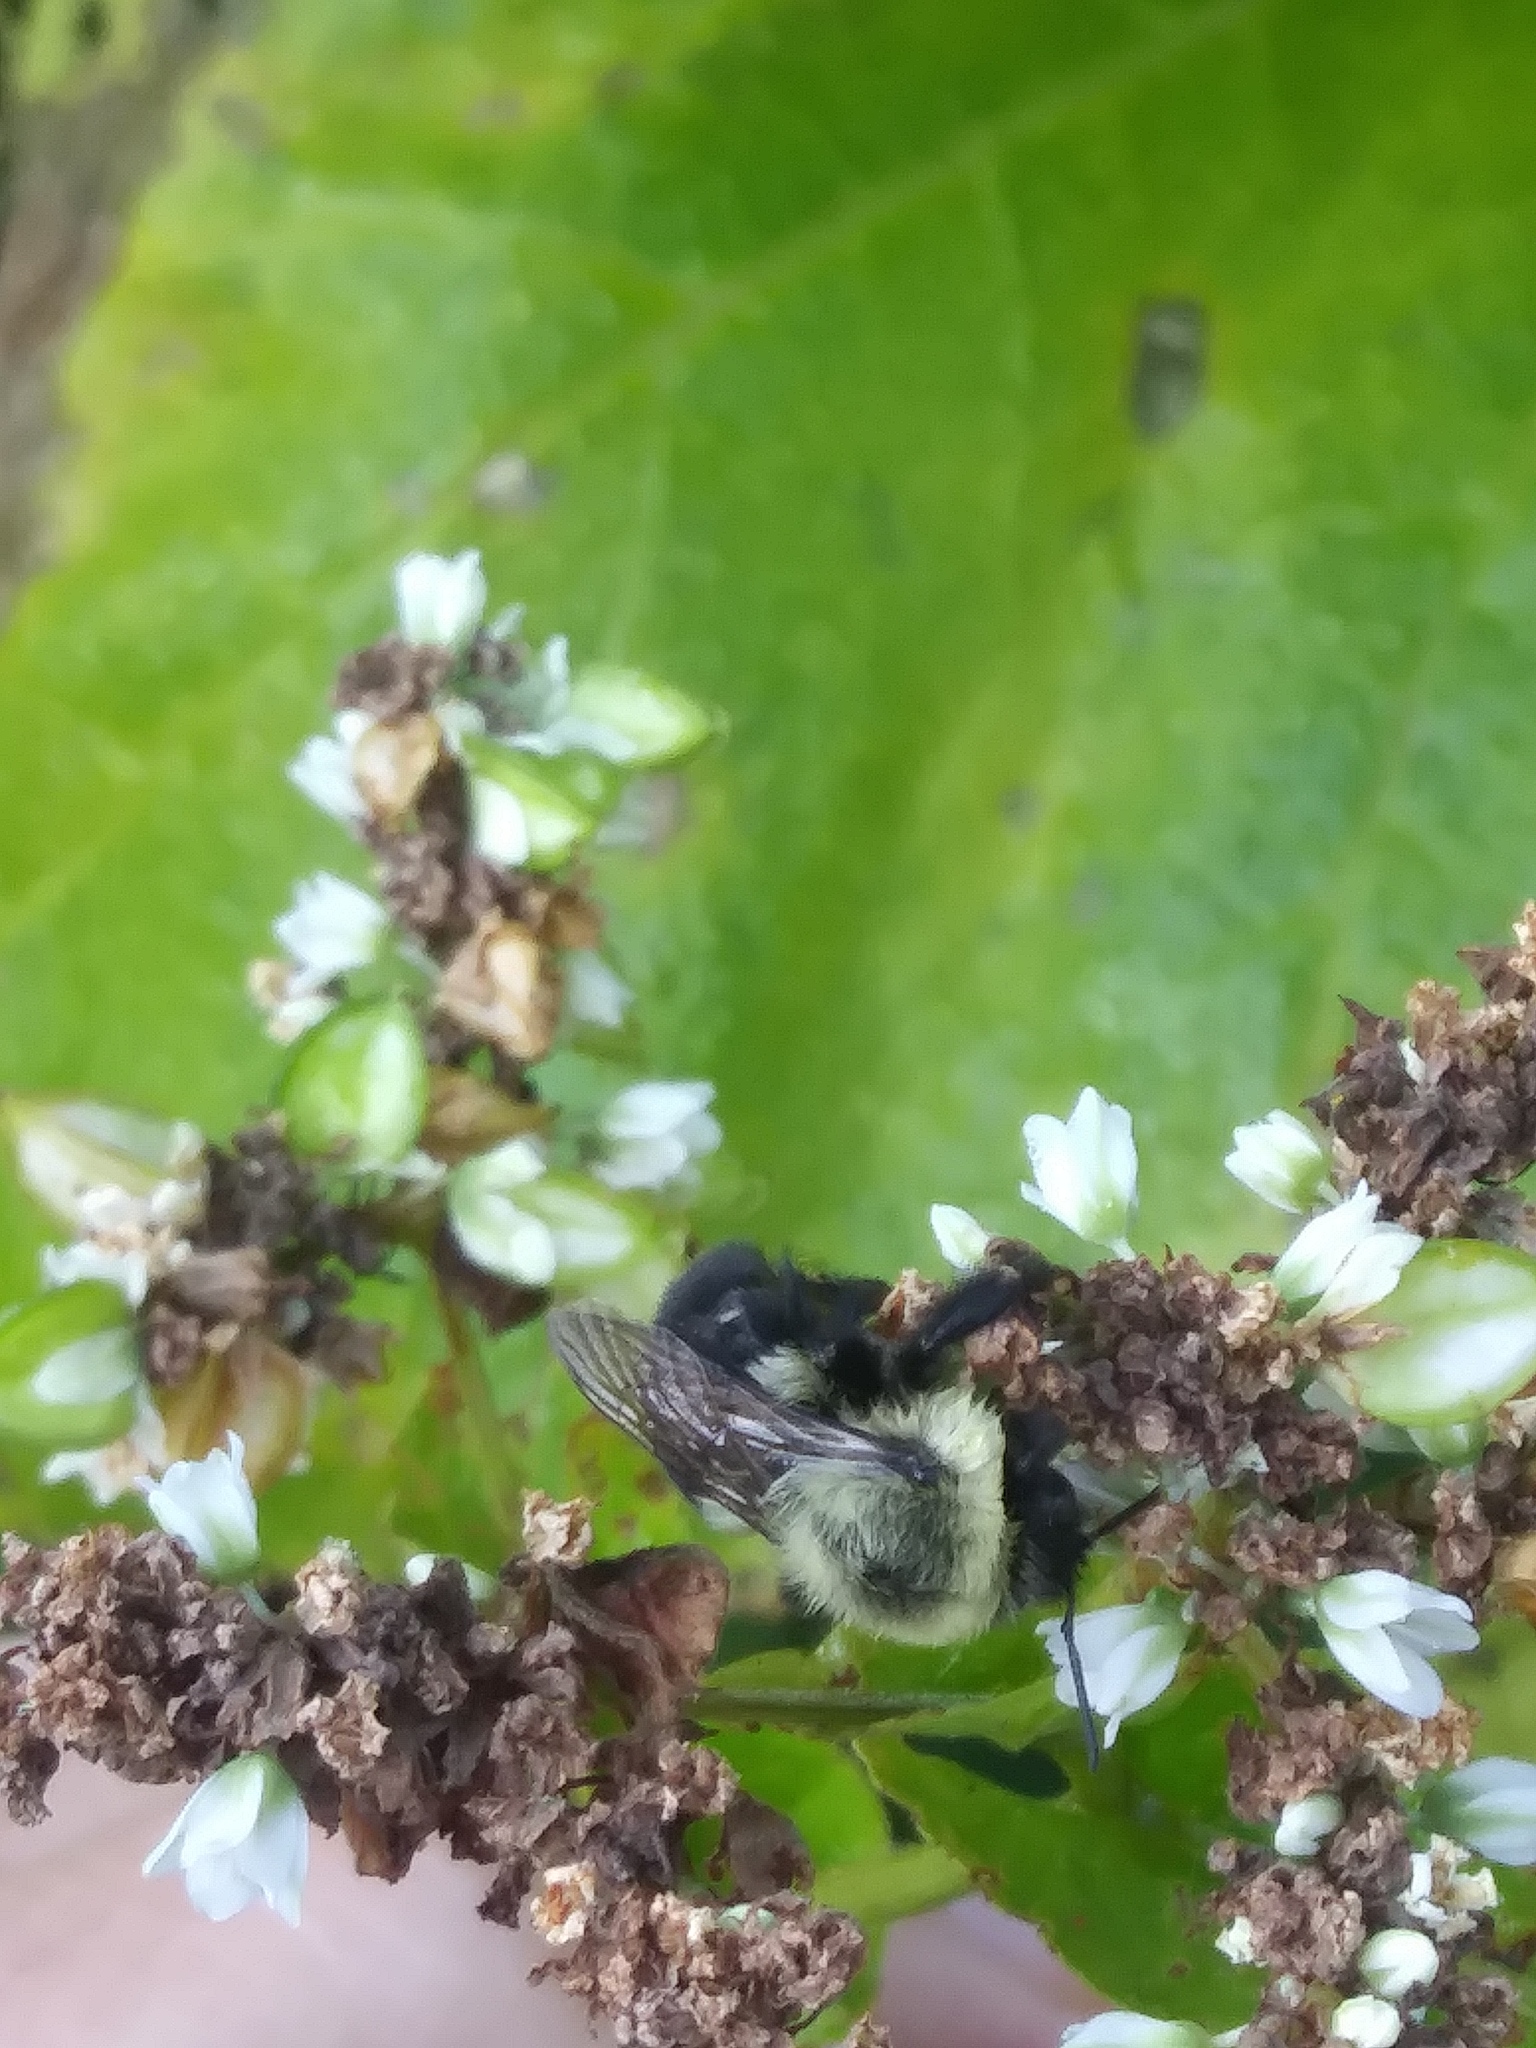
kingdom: Animalia
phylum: Arthropoda
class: Insecta
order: Hymenoptera
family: Apidae
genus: Bombus
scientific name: Bombus impatiens
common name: Common eastern bumble bee
